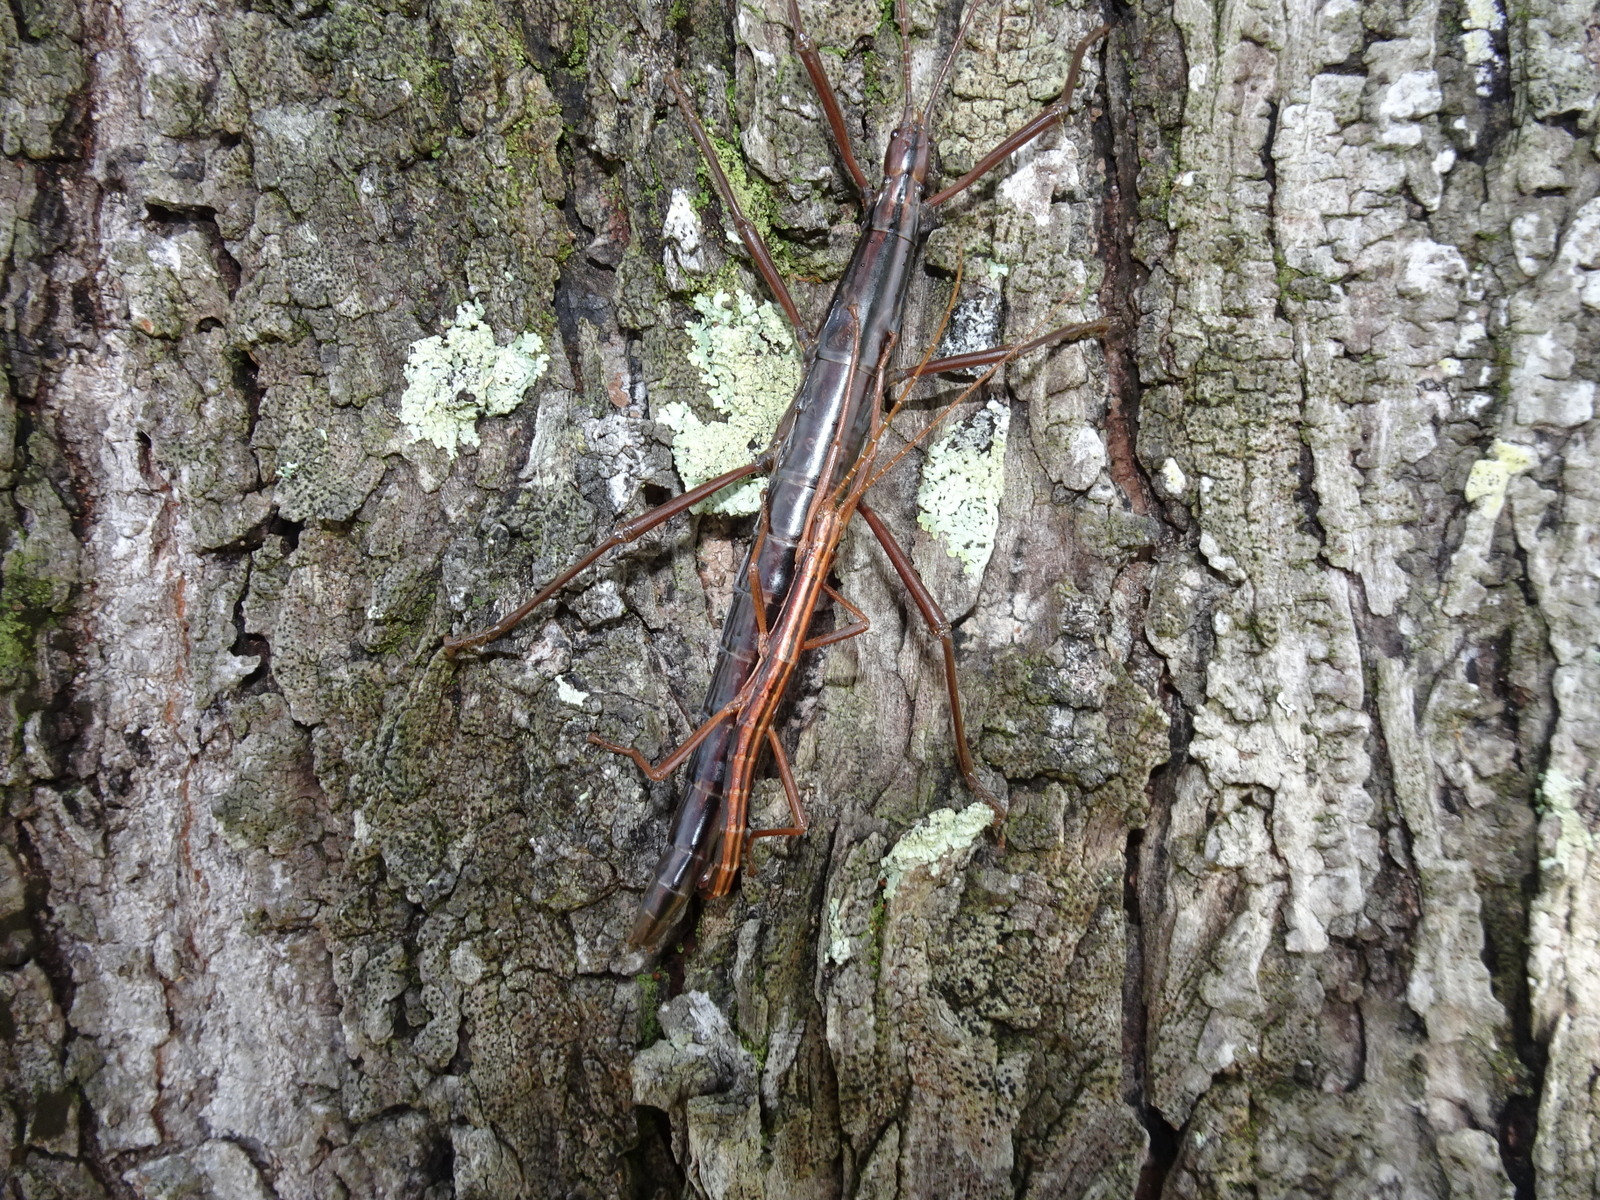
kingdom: Animalia
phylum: Arthropoda
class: Insecta
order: Phasmida
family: Pseudophasmatidae
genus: Anisomorpha
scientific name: Anisomorpha buprestoides
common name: Florida stick insect
